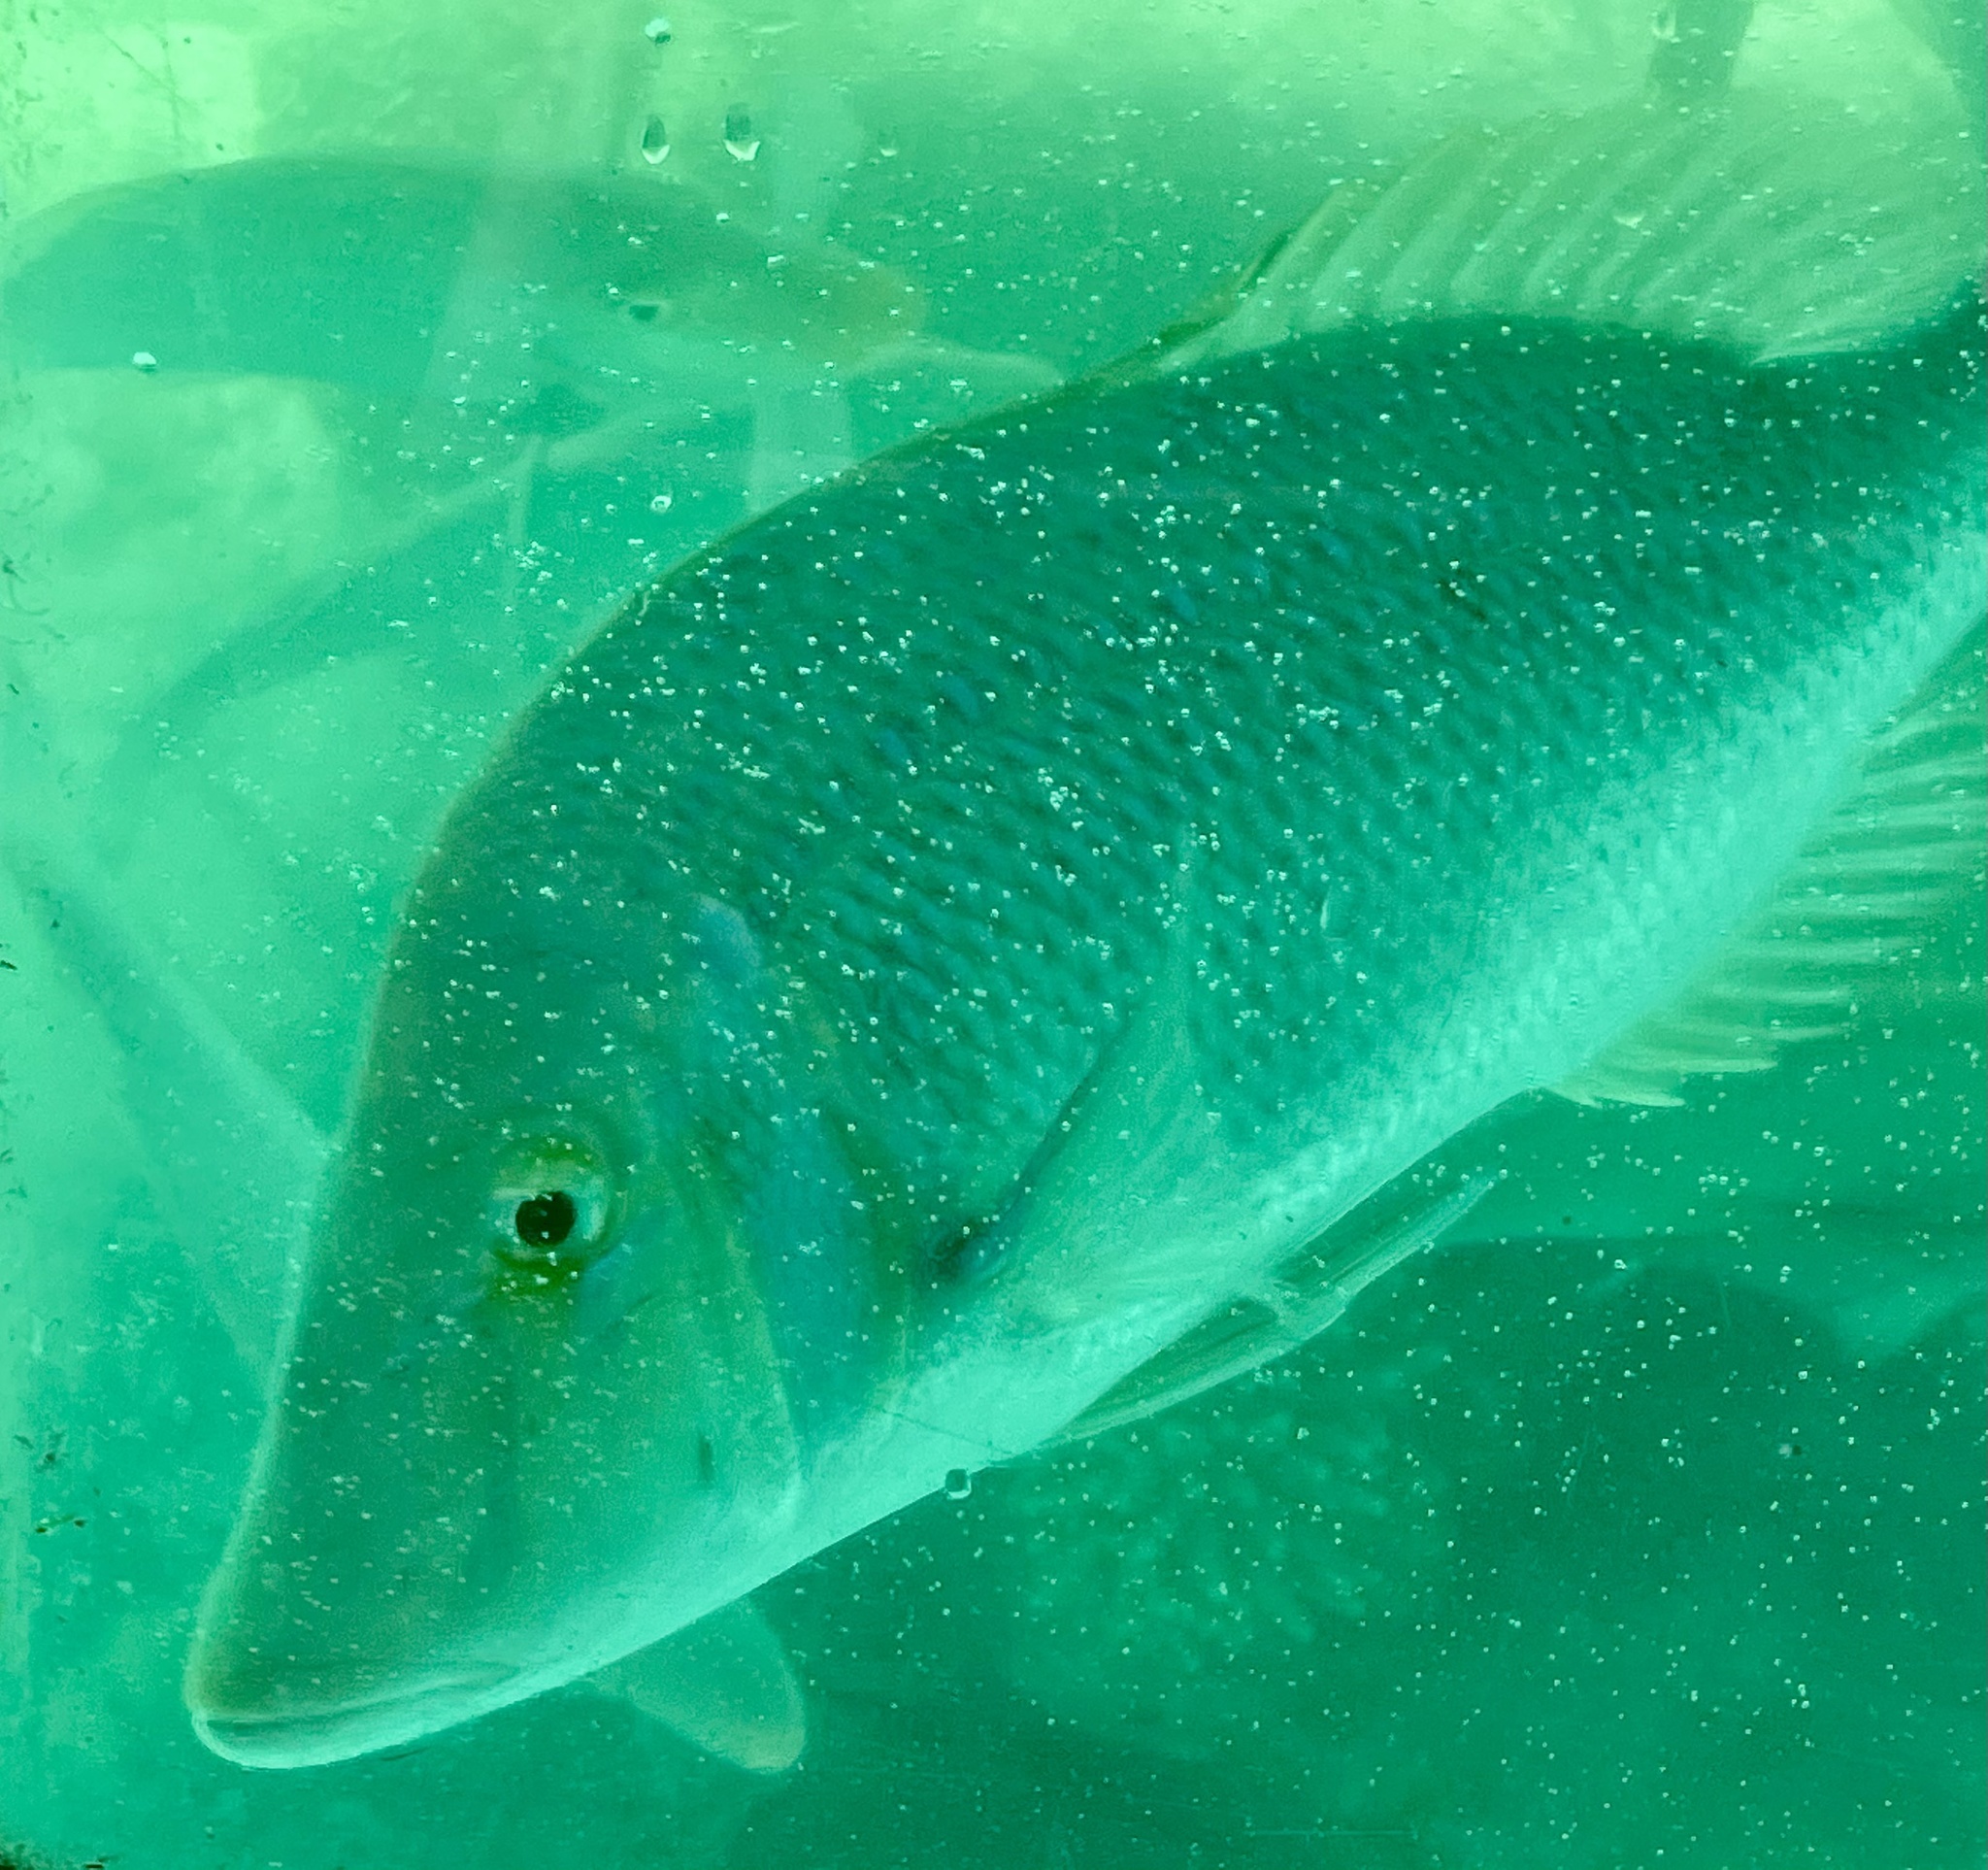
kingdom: Animalia
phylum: Chordata
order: Perciformes
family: Lethrinidae
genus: Lethrinus
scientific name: Lethrinus nebulosus
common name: Spangled emperor
